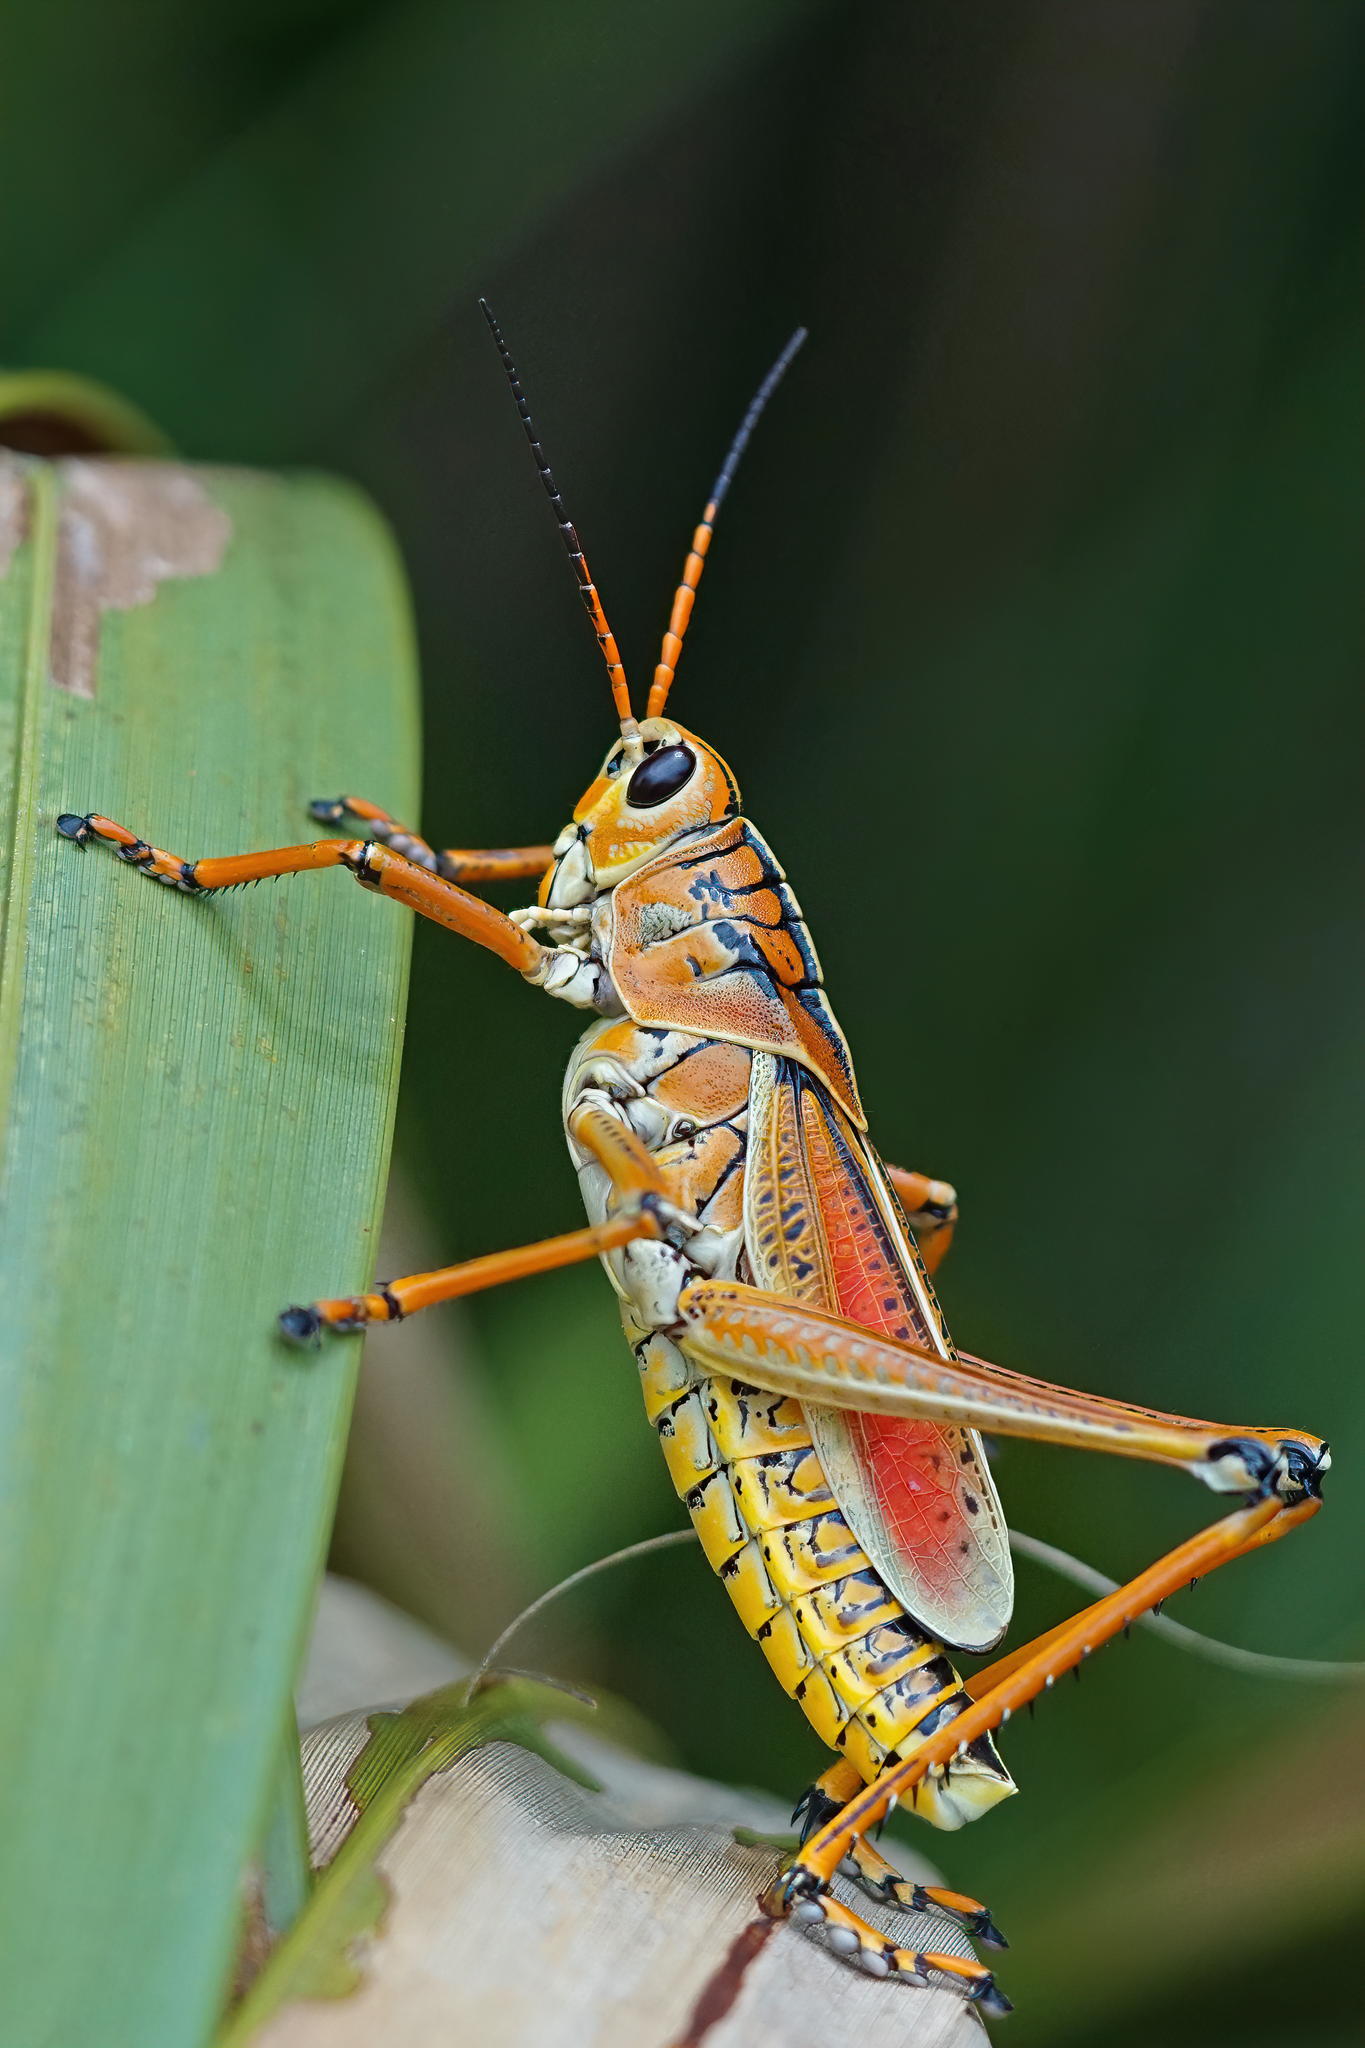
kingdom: Animalia
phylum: Arthropoda
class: Insecta
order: Orthoptera
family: Romaleidae
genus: Romalea
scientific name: Romalea microptera
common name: Eastern lubber grasshopper
